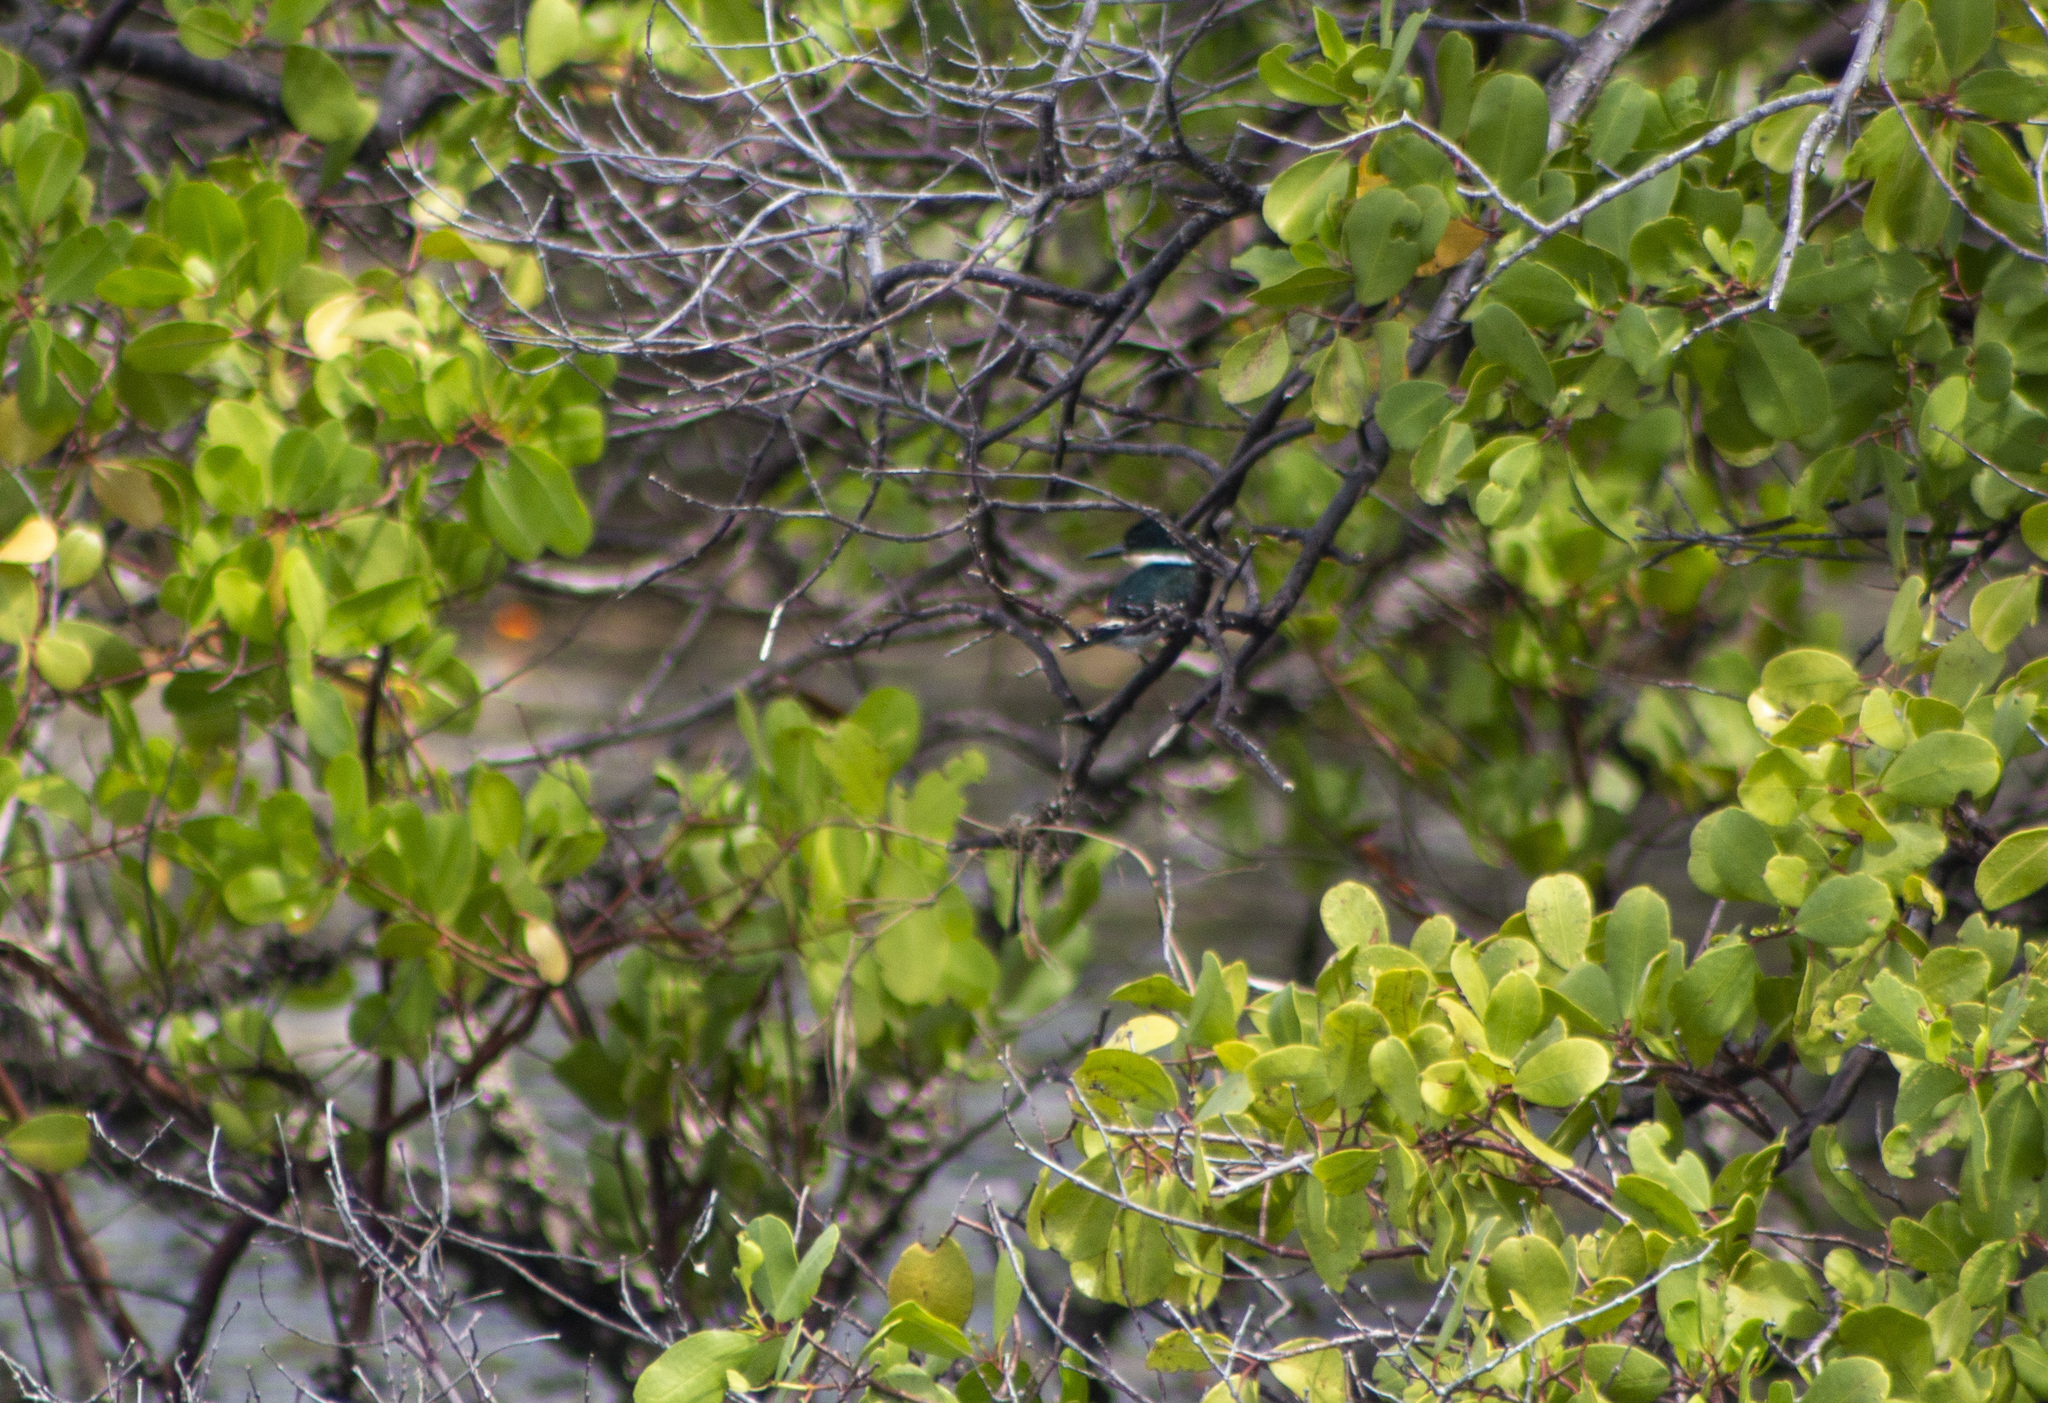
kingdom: Animalia
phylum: Chordata
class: Aves
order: Coraciiformes
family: Alcedinidae
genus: Chloroceryle
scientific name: Chloroceryle americana
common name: Green kingfisher
